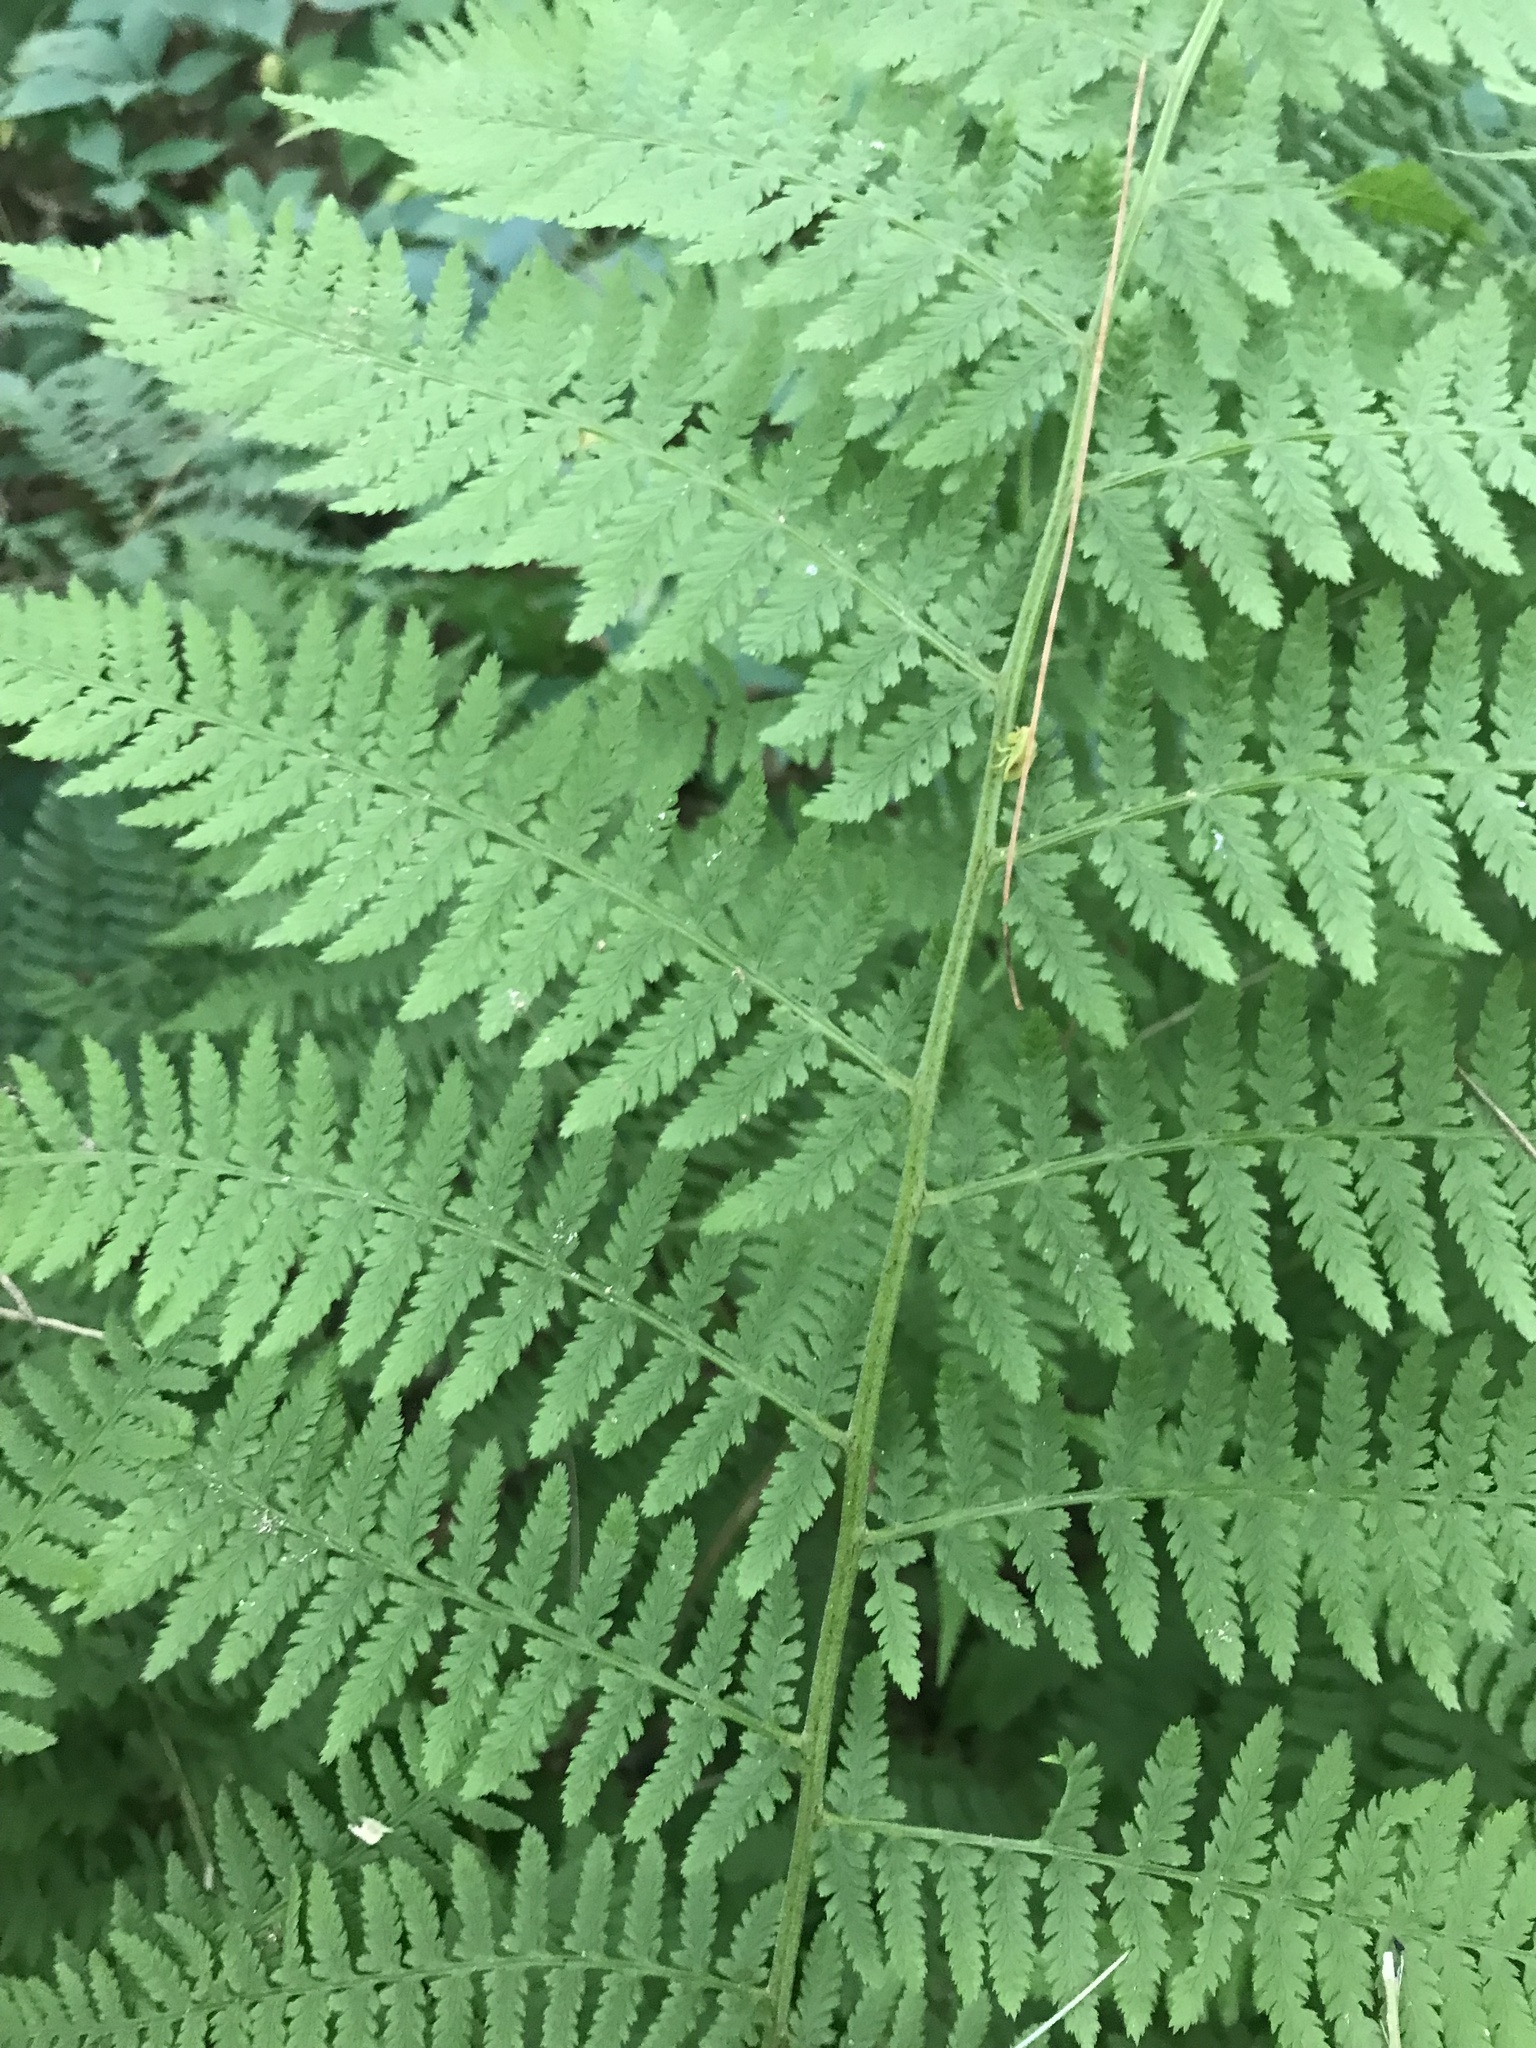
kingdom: Plantae
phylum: Tracheophyta
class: Polypodiopsida
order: Polypodiales
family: Athyriaceae
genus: Athyrium
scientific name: Athyrium angustum
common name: Northern lady fern
